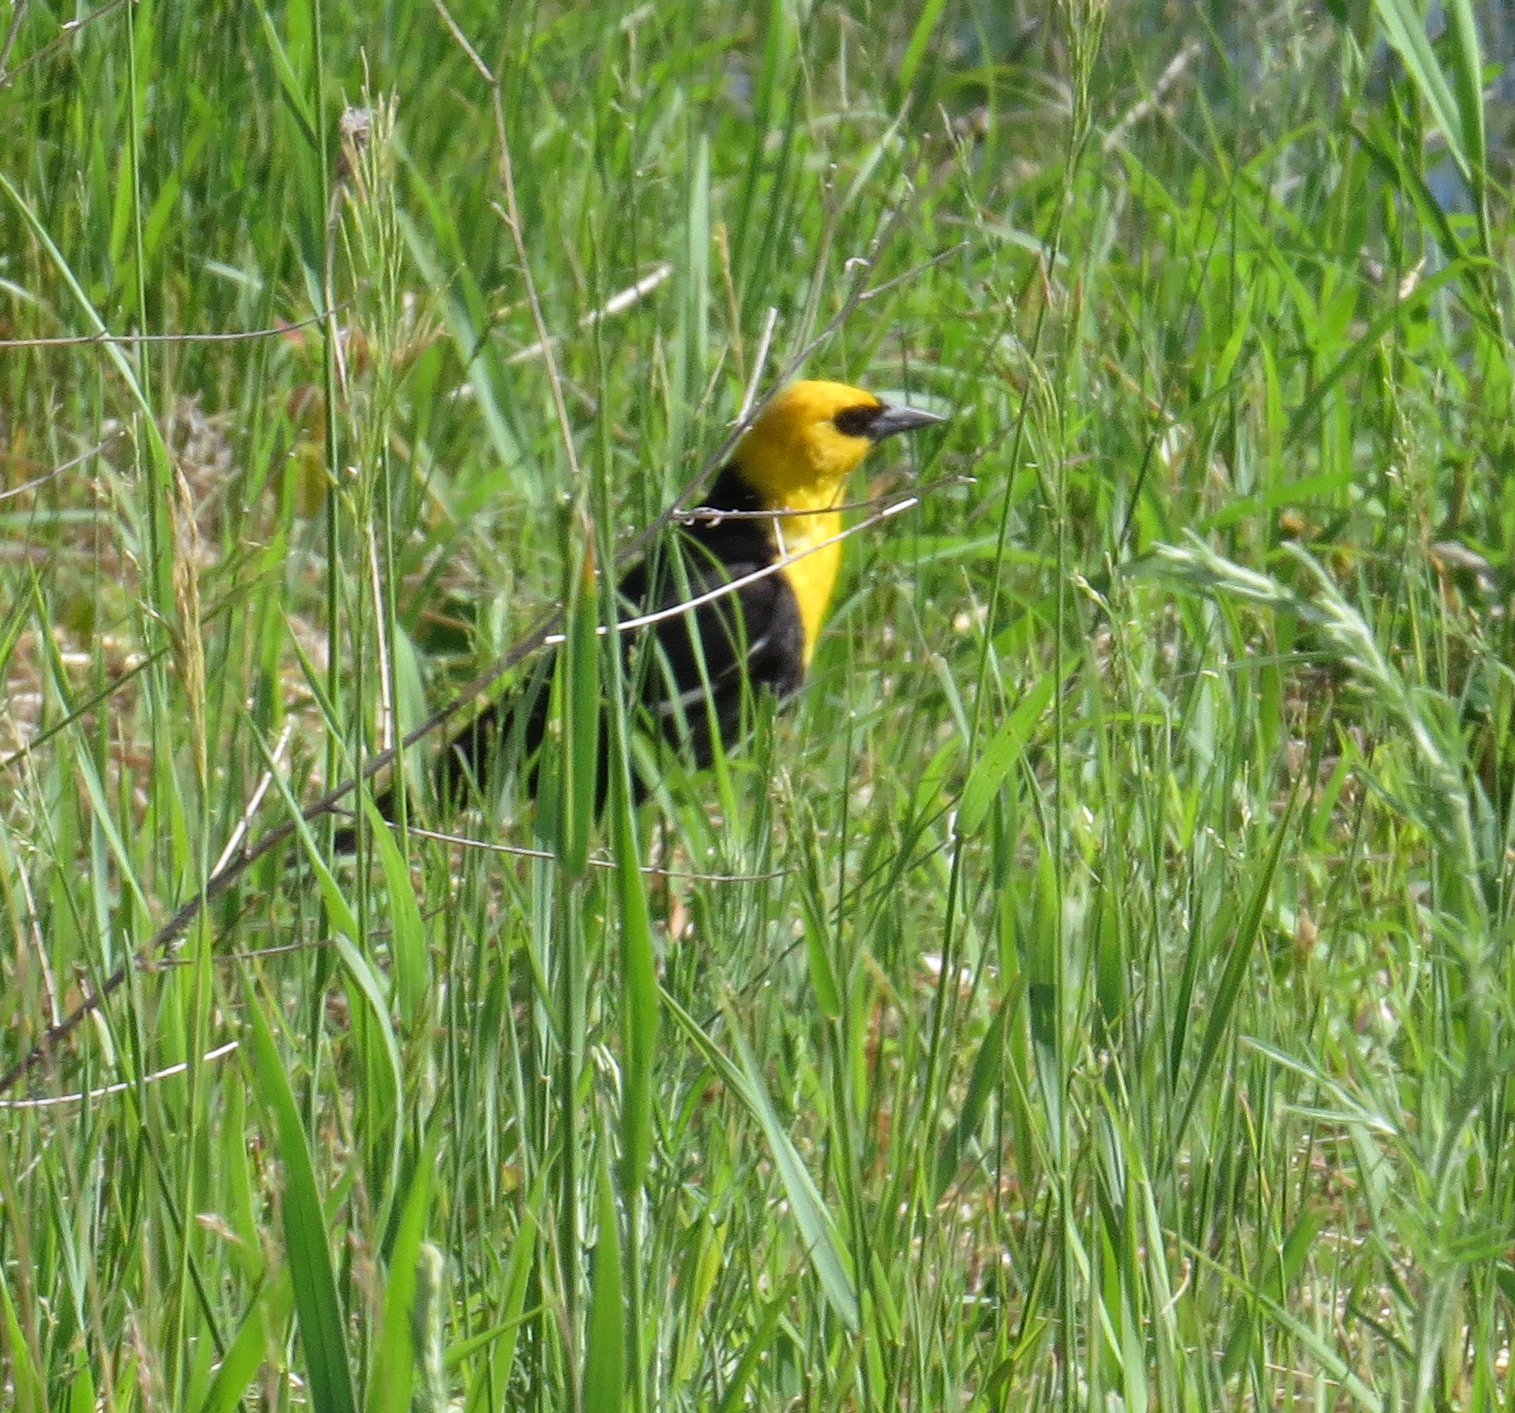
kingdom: Animalia
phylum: Chordata
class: Aves
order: Passeriformes
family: Icteridae
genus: Xanthocephalus
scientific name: Xanthocephalus xanthocephalus
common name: Yellow-headed blackbird
